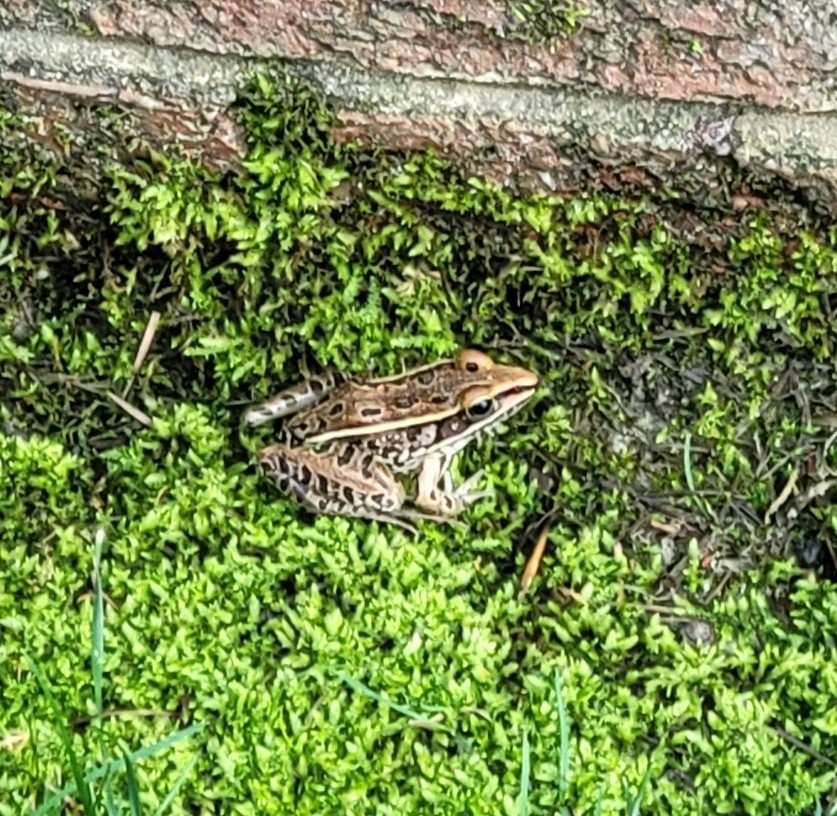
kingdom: Animalia
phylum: Chordata
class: Amphibia
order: Anura
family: Ranidae
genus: Lithobates
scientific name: Lithobates sphenocephalus
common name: Southern leopard frog
